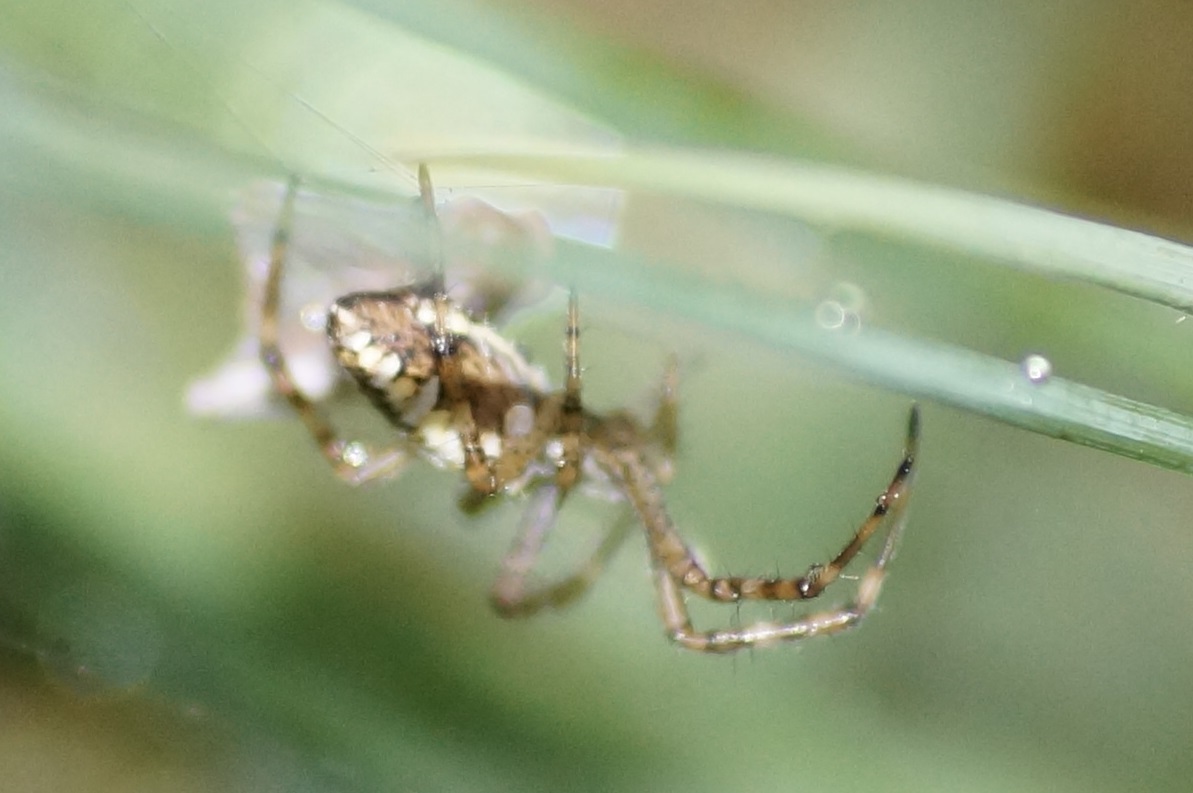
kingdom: Animalia
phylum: Arthropoda
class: Arachnida
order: Araneae
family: Araneidae
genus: Argiope
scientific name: Argiope bruennichi
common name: Wasp spider
